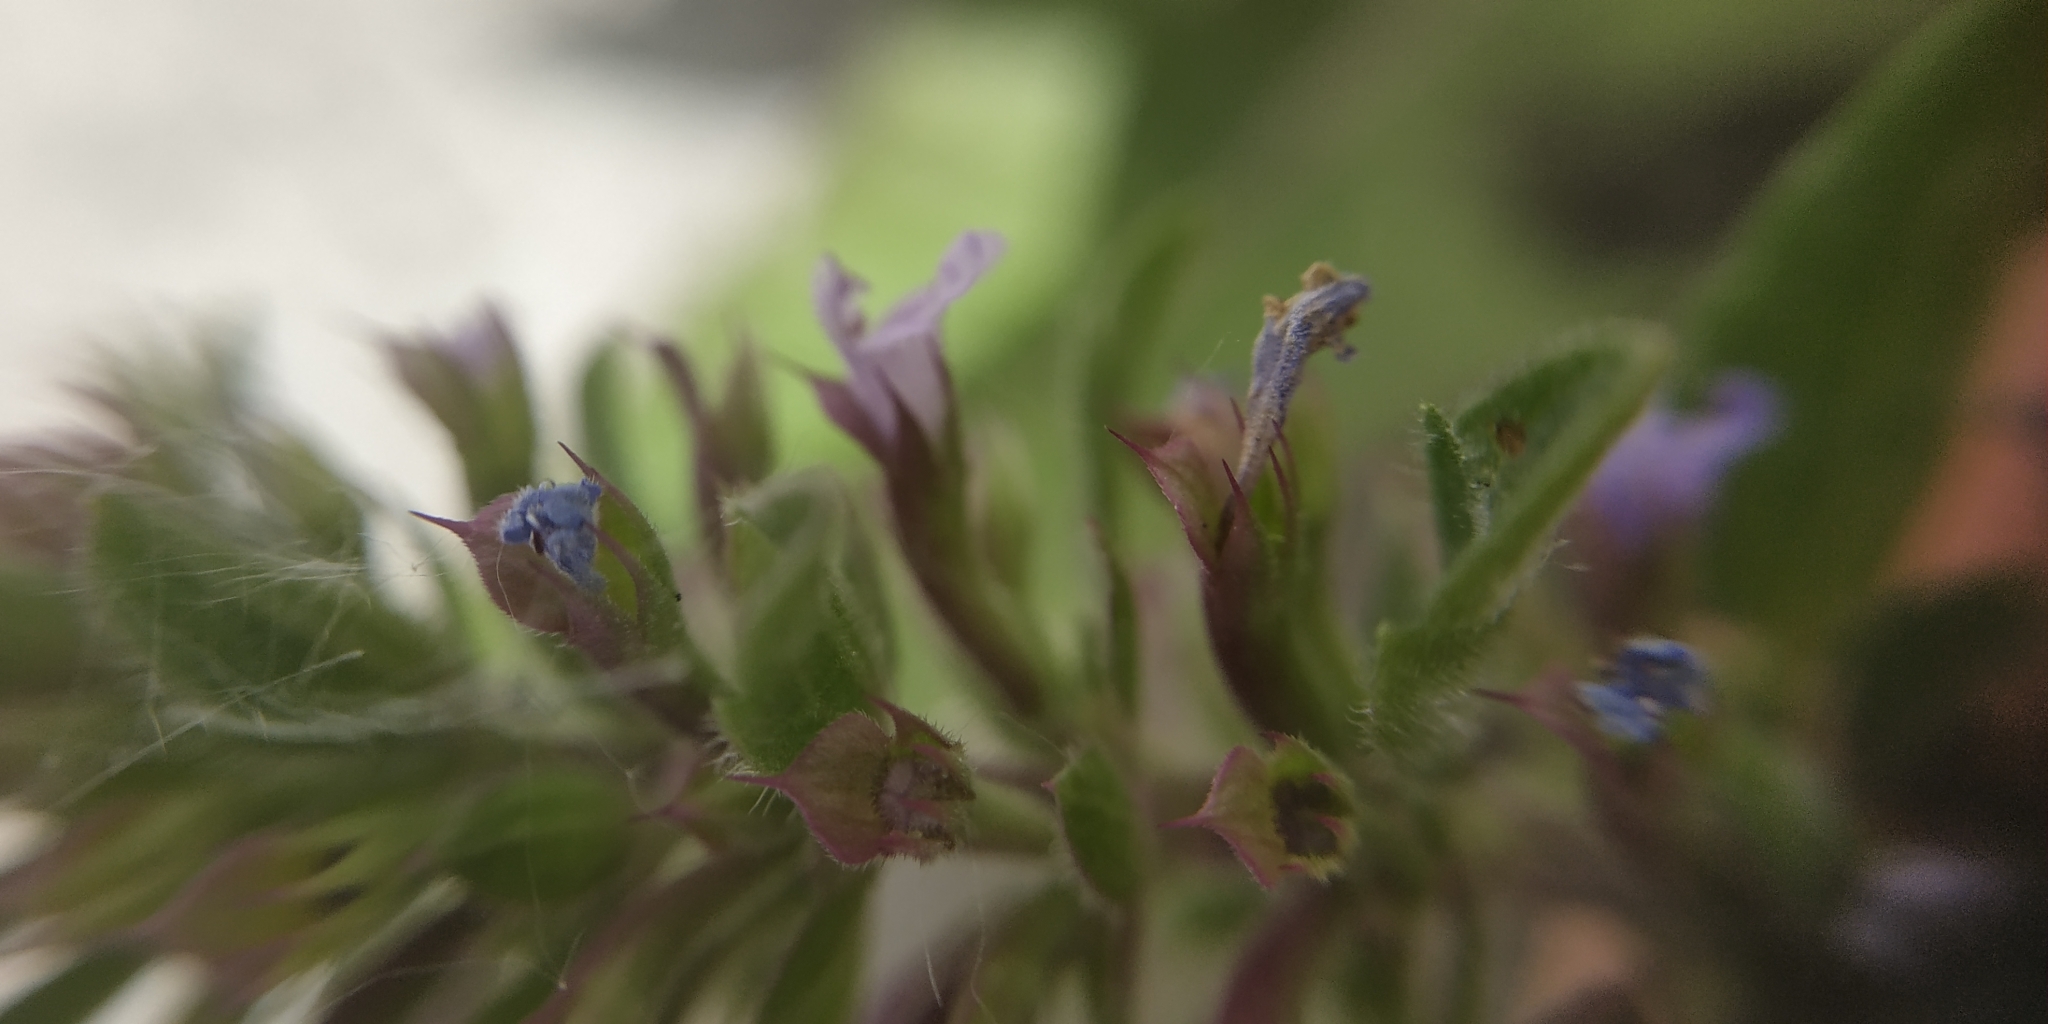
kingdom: Plantae
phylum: Tracheophyta
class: Magnoliopsida
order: Lamiales
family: Lamiaceae
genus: Dracocephalum
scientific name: Dracocephalum thymiflorum
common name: Thymeleaf dragonhead
